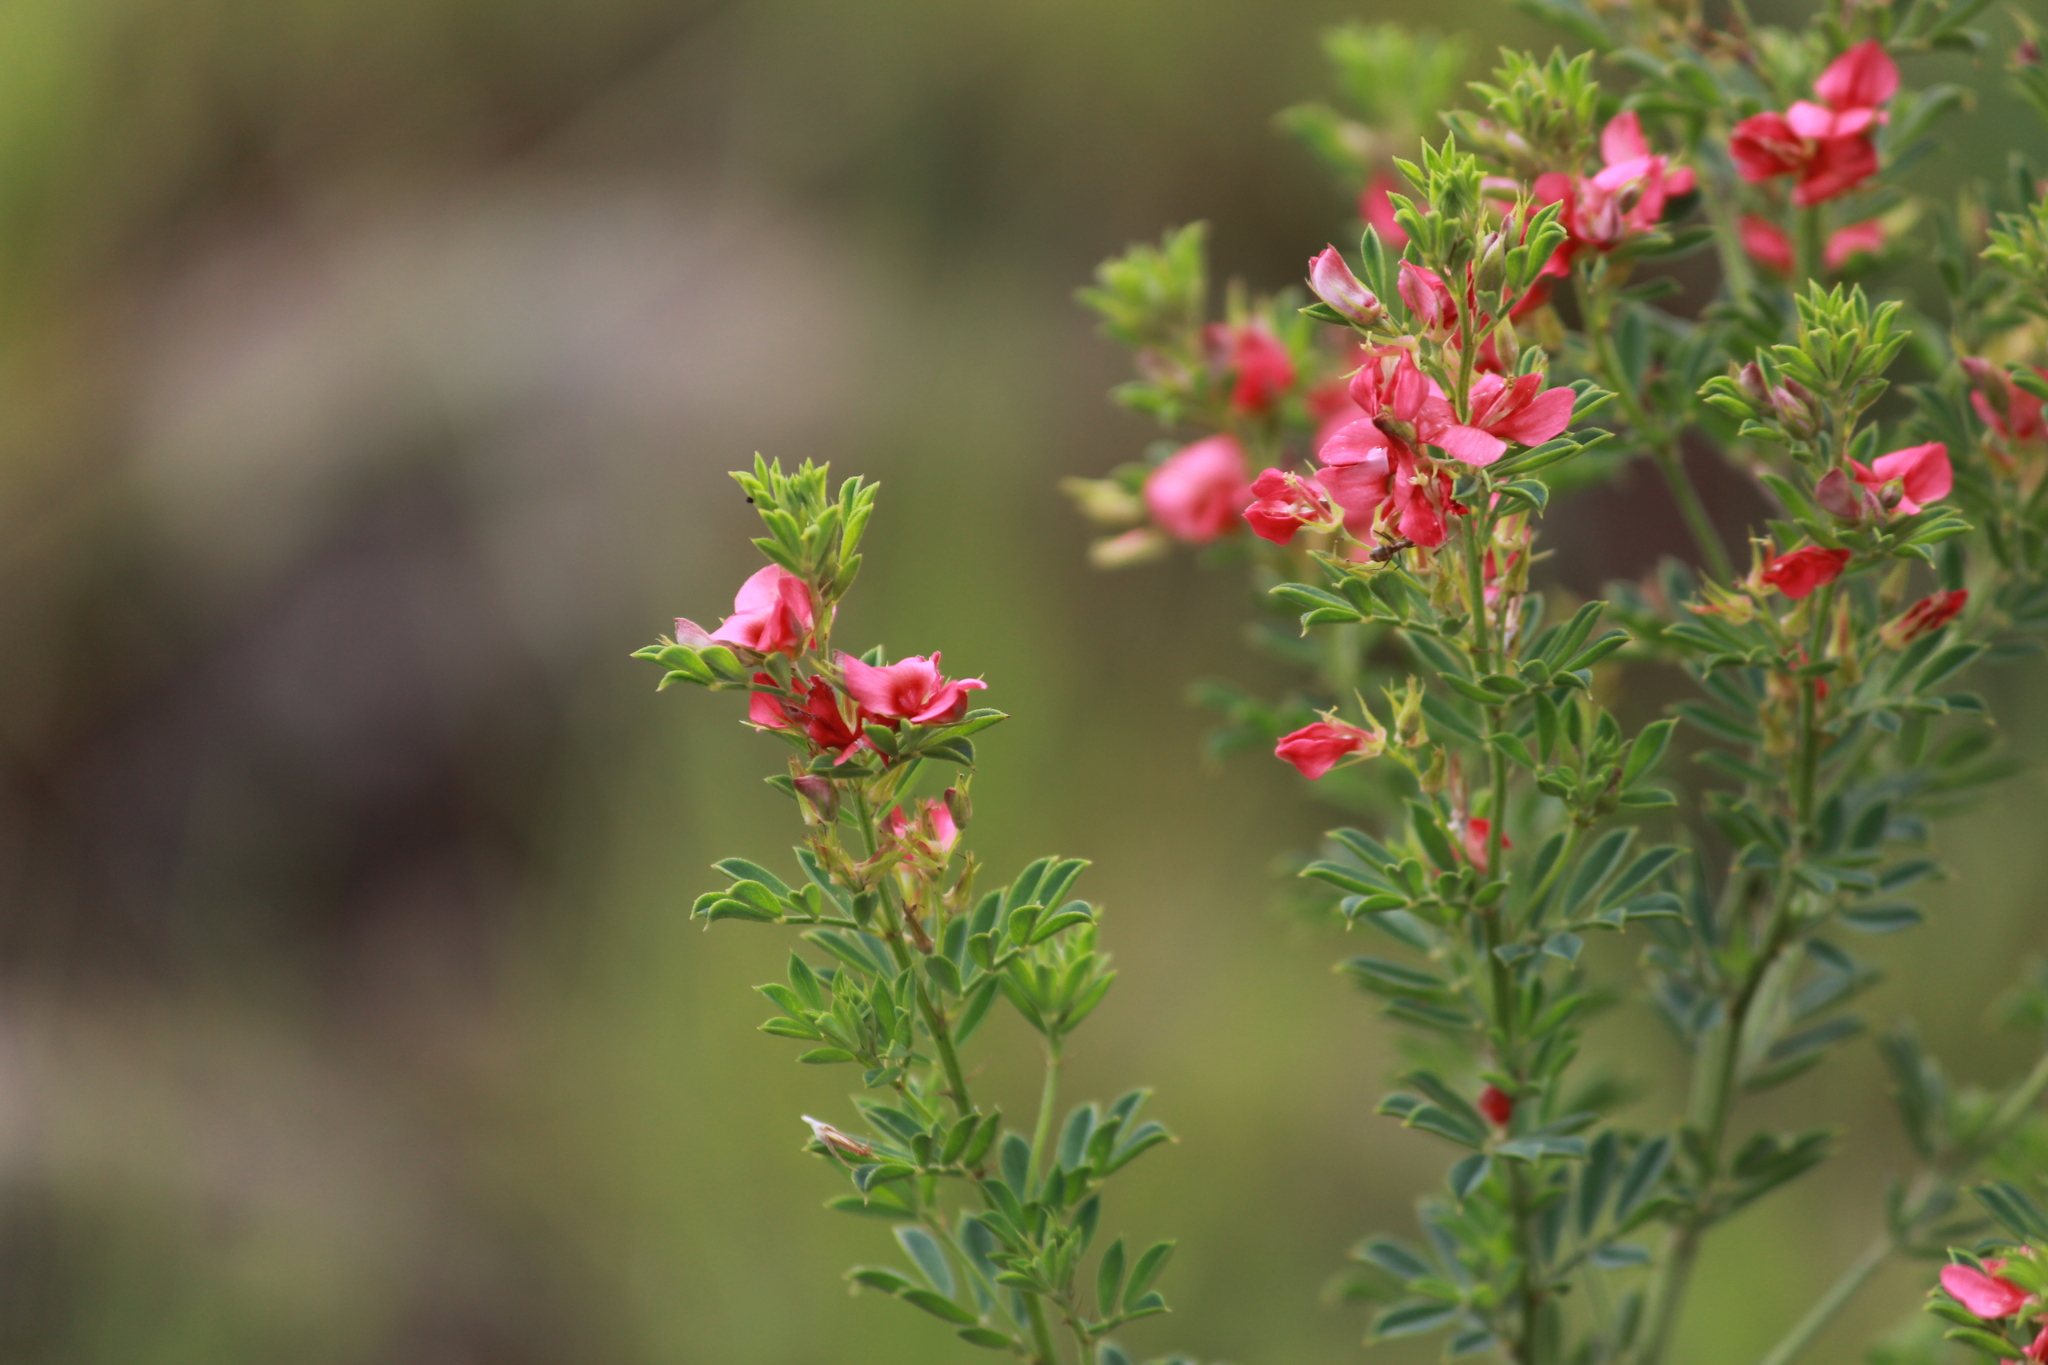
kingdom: Plantae
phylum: Tracheophyta
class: Magnoliopsida
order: Fabales
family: Fabaceae
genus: Indigofera
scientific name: Indigofera rubroglandulosa
